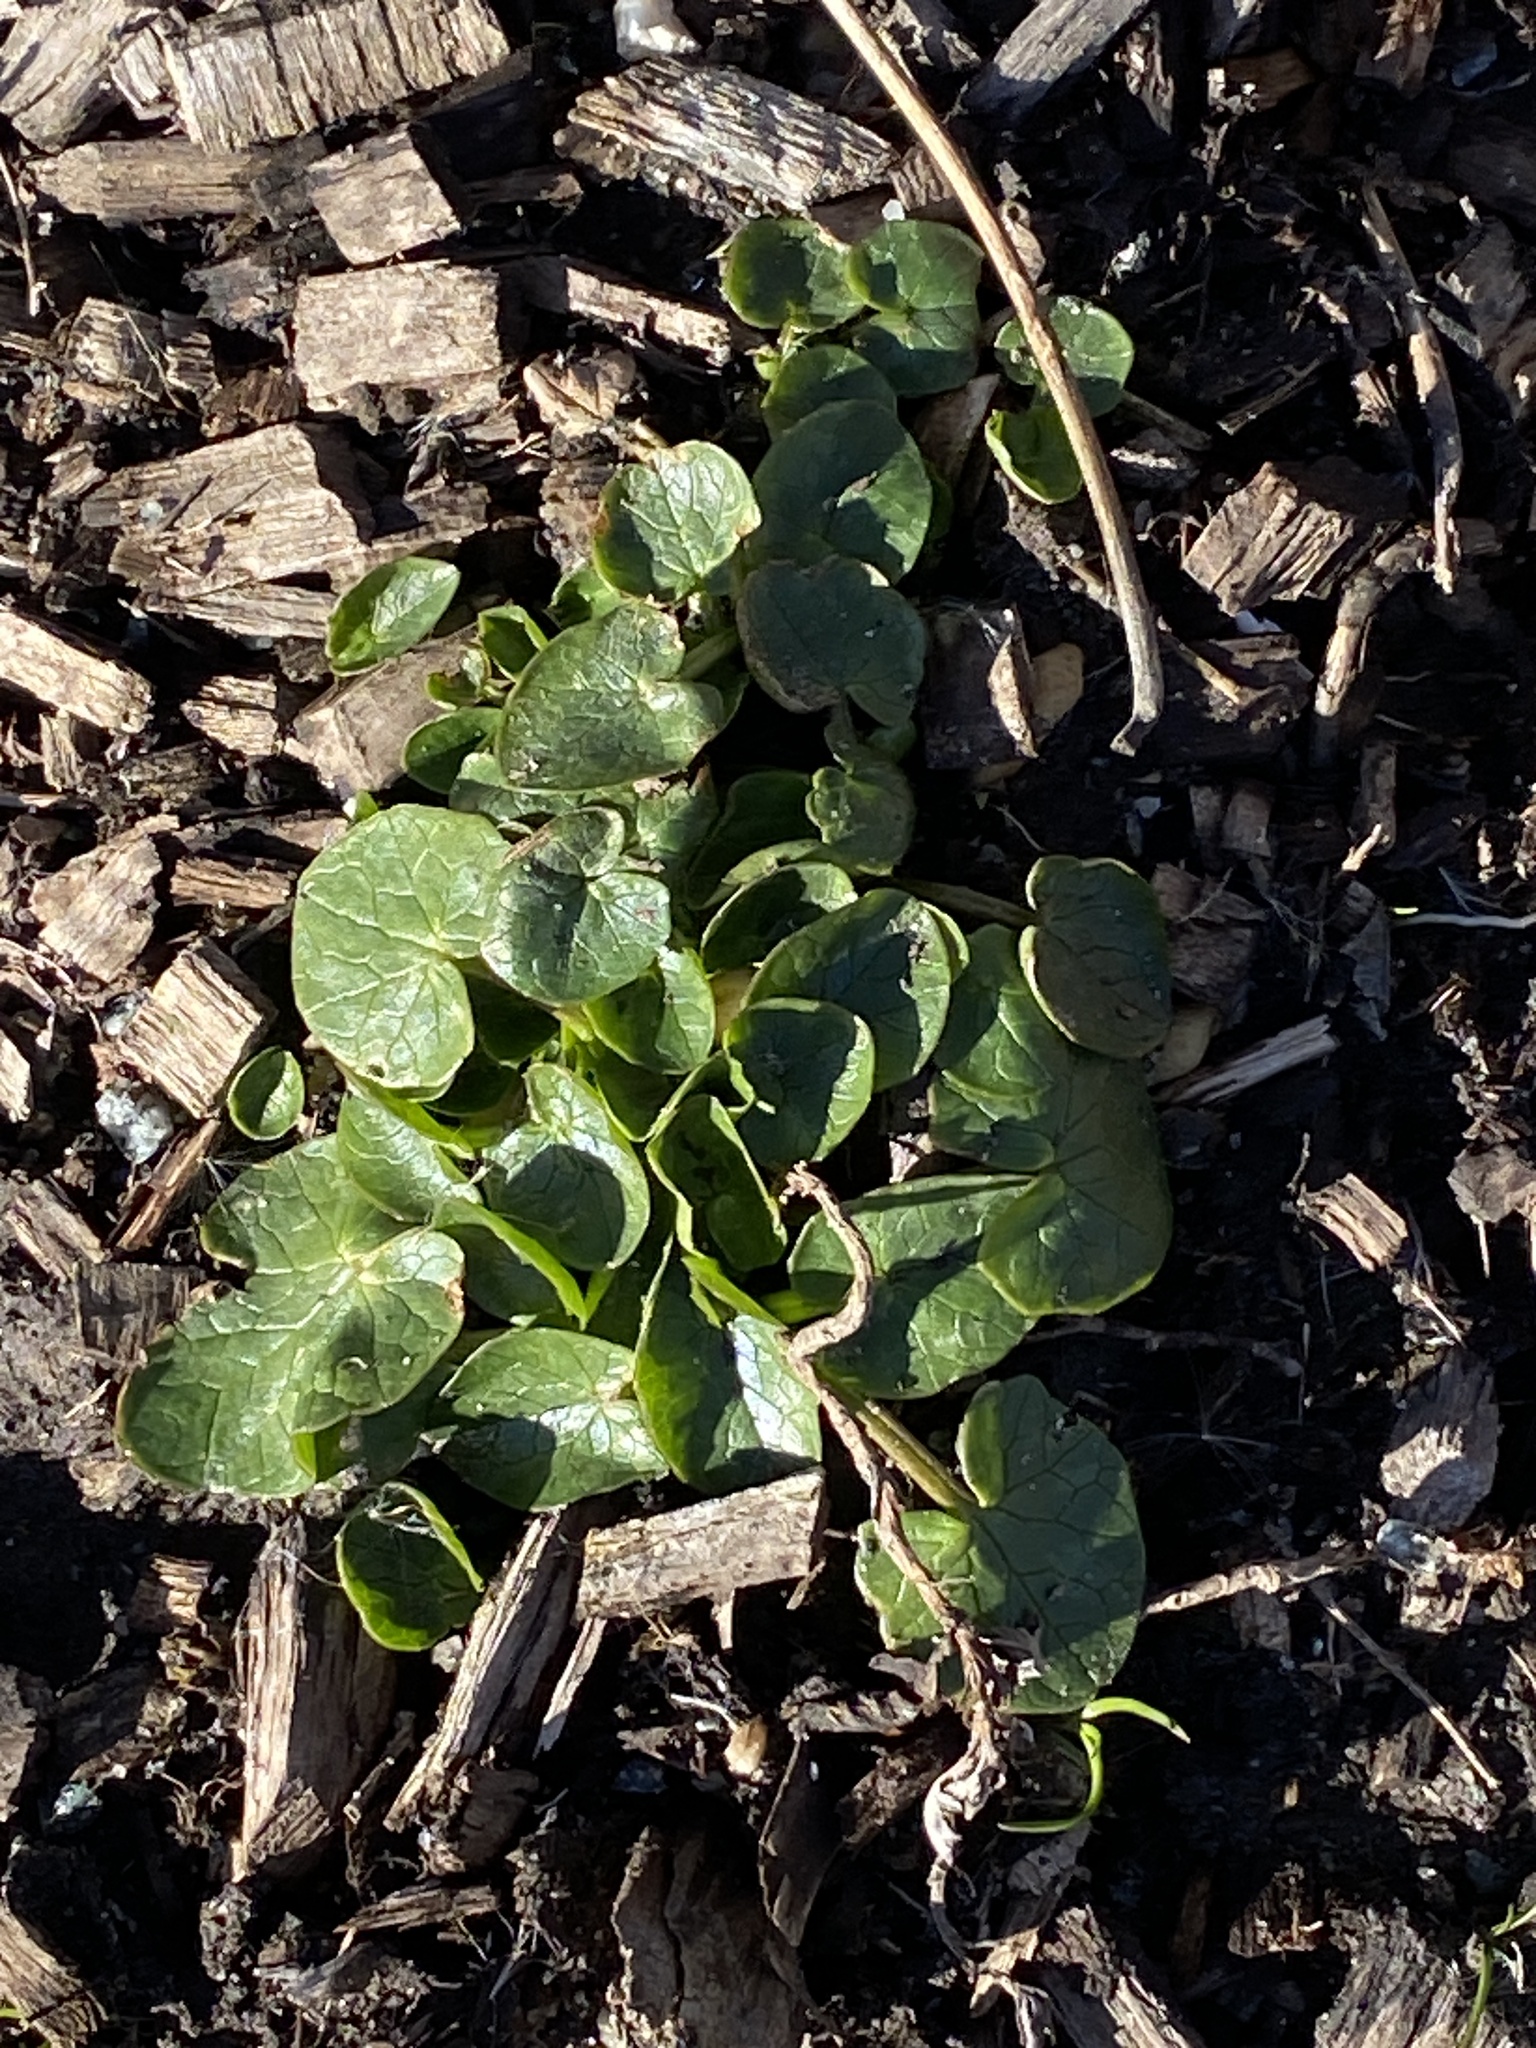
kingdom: Plantae
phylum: Tracheophyta
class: Magnoliopsida
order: Ranunculales
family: Ranunculaceae
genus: Ficaria
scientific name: Ficaria verna
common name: Lesser celandine
